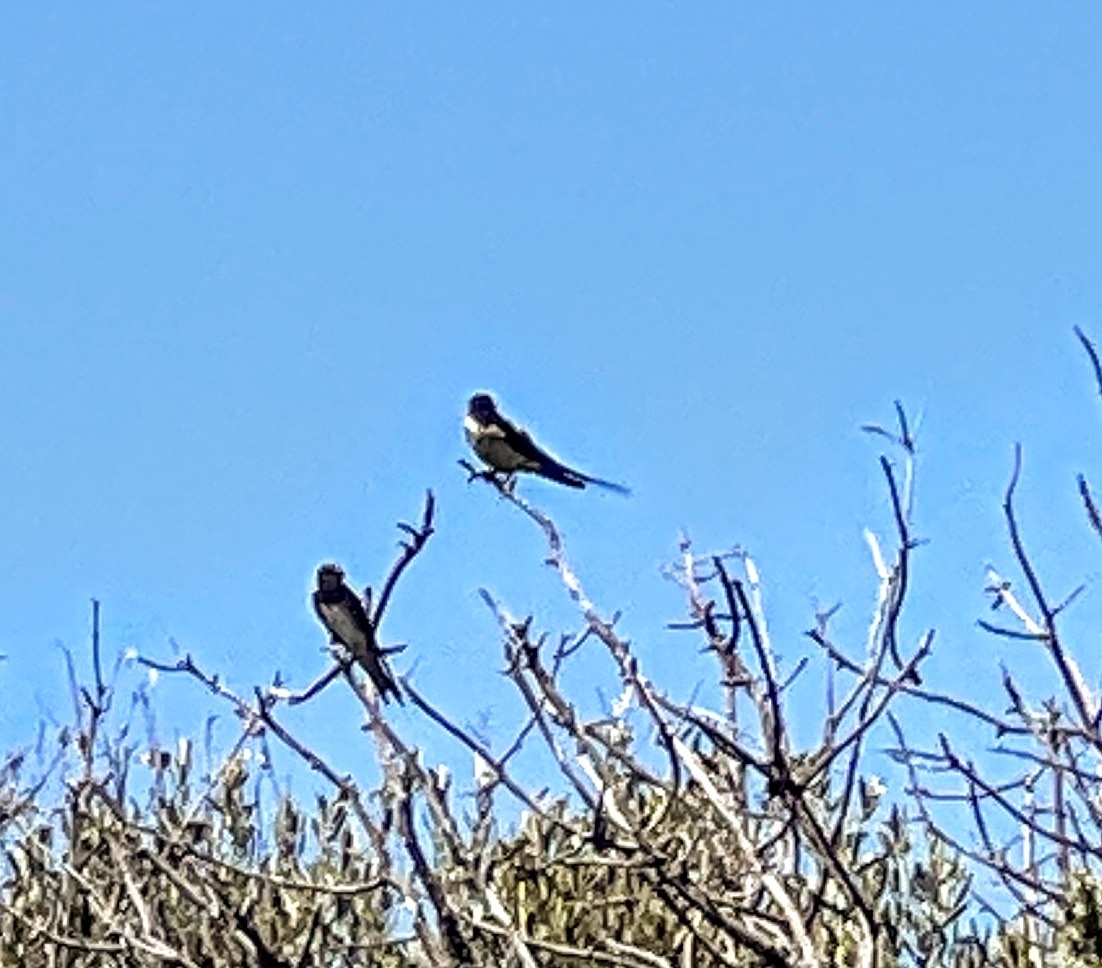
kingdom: Animalia
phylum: Chordata
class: Aves
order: Passeriformes
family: Hirundinidae
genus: Hirundo
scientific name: Hirundo rustica
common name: Barn swallow
